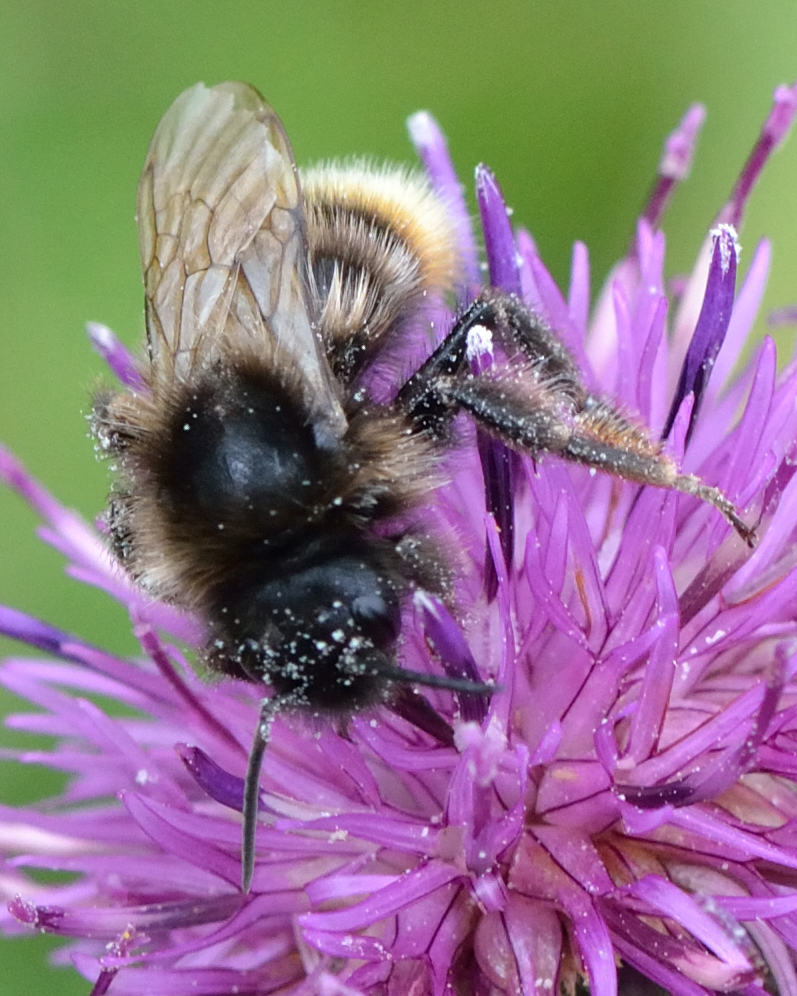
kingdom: Animalia
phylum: Arthropoda
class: Insecta
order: Hymenoptera
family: Apidae
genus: Bombus
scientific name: Bombus rupestris
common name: Hill cuckoo-bee
